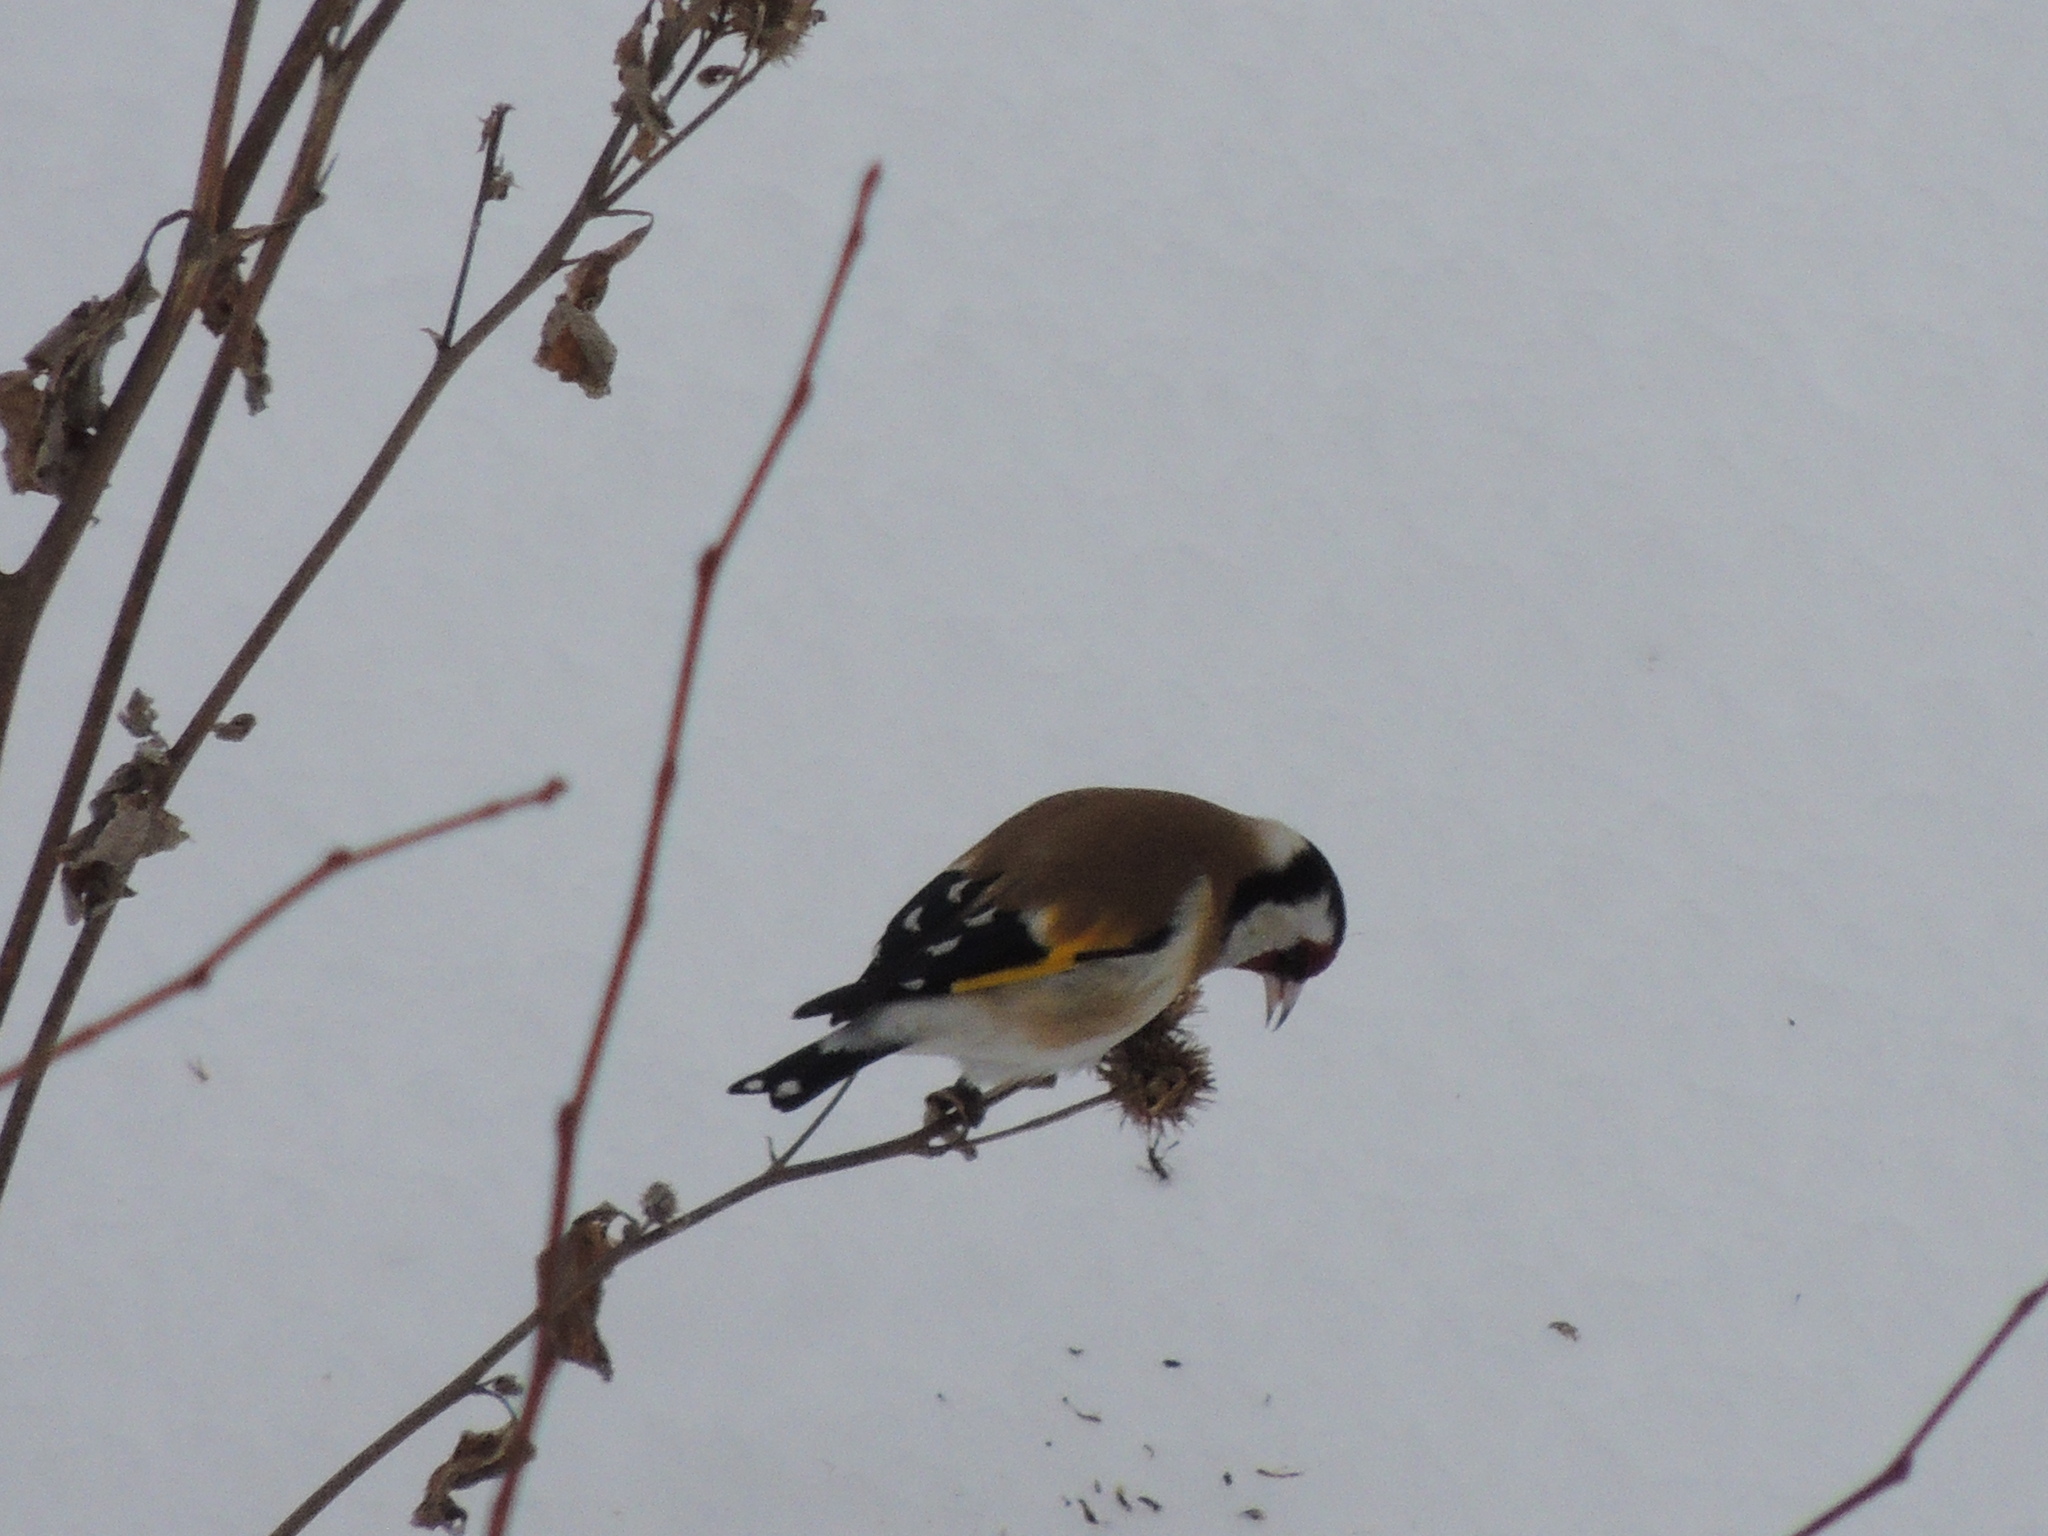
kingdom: Animalia
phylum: Chordata
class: Aves
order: Passeriformes
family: Fringillidae
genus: Carduelis
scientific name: Carduelis carduelis
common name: European goldfinch
